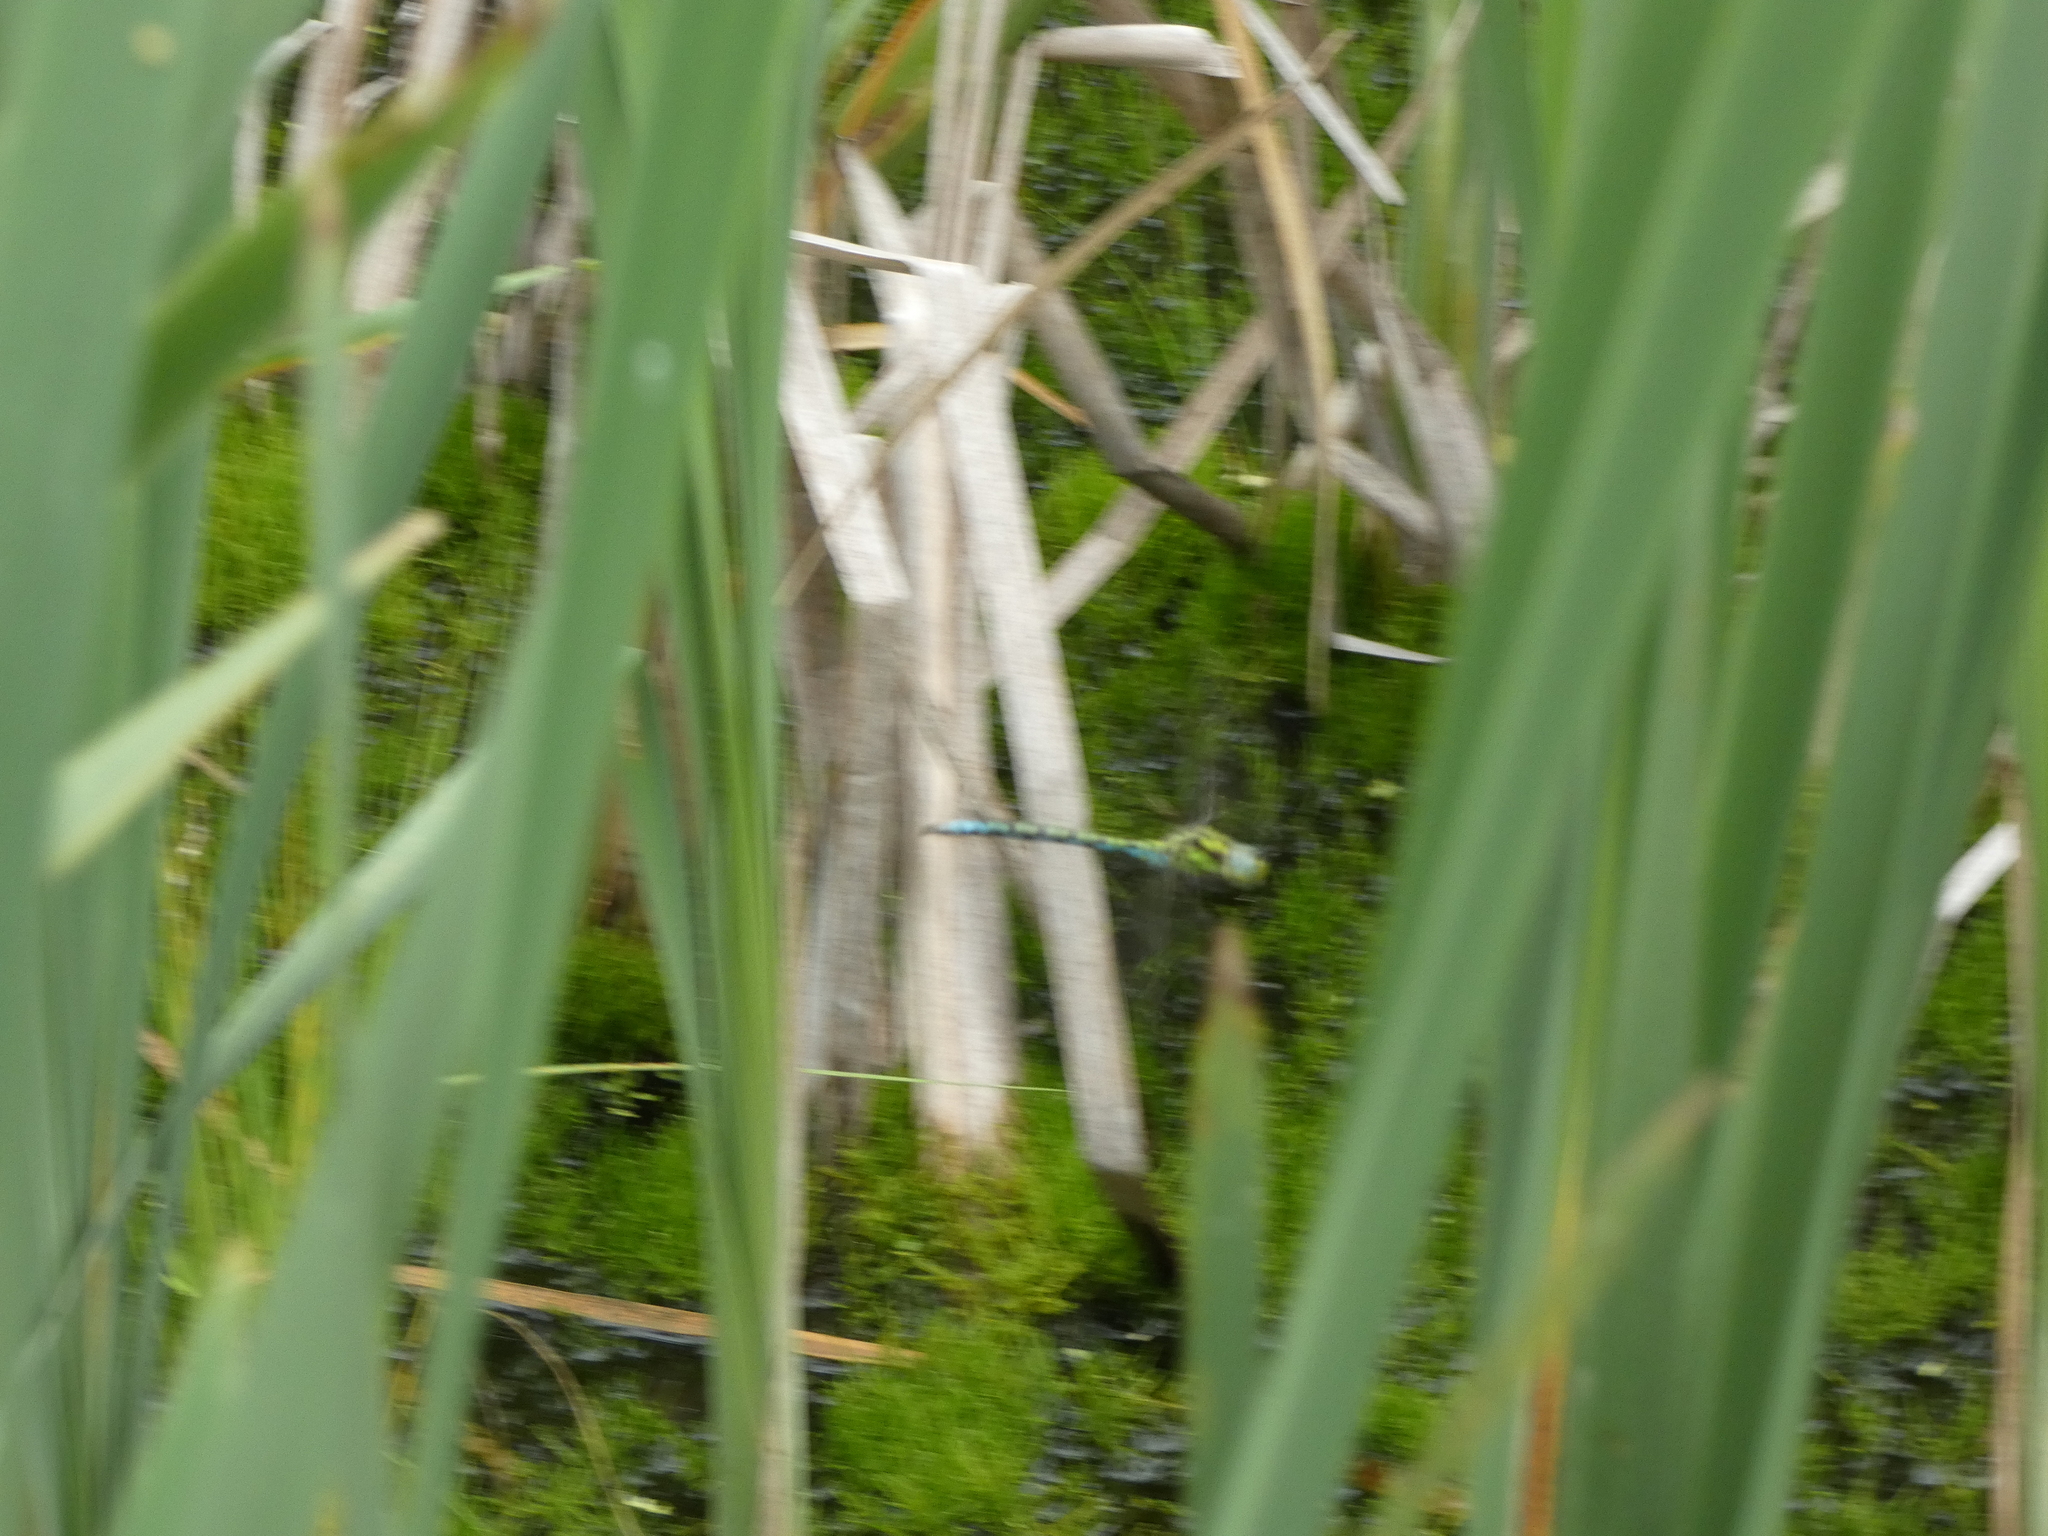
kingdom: Animalia
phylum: Arthropoda
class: Insecta
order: Odonata
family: Aeshnidae
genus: Aeshna
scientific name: Aeshna cyanea
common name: Southern hawker
